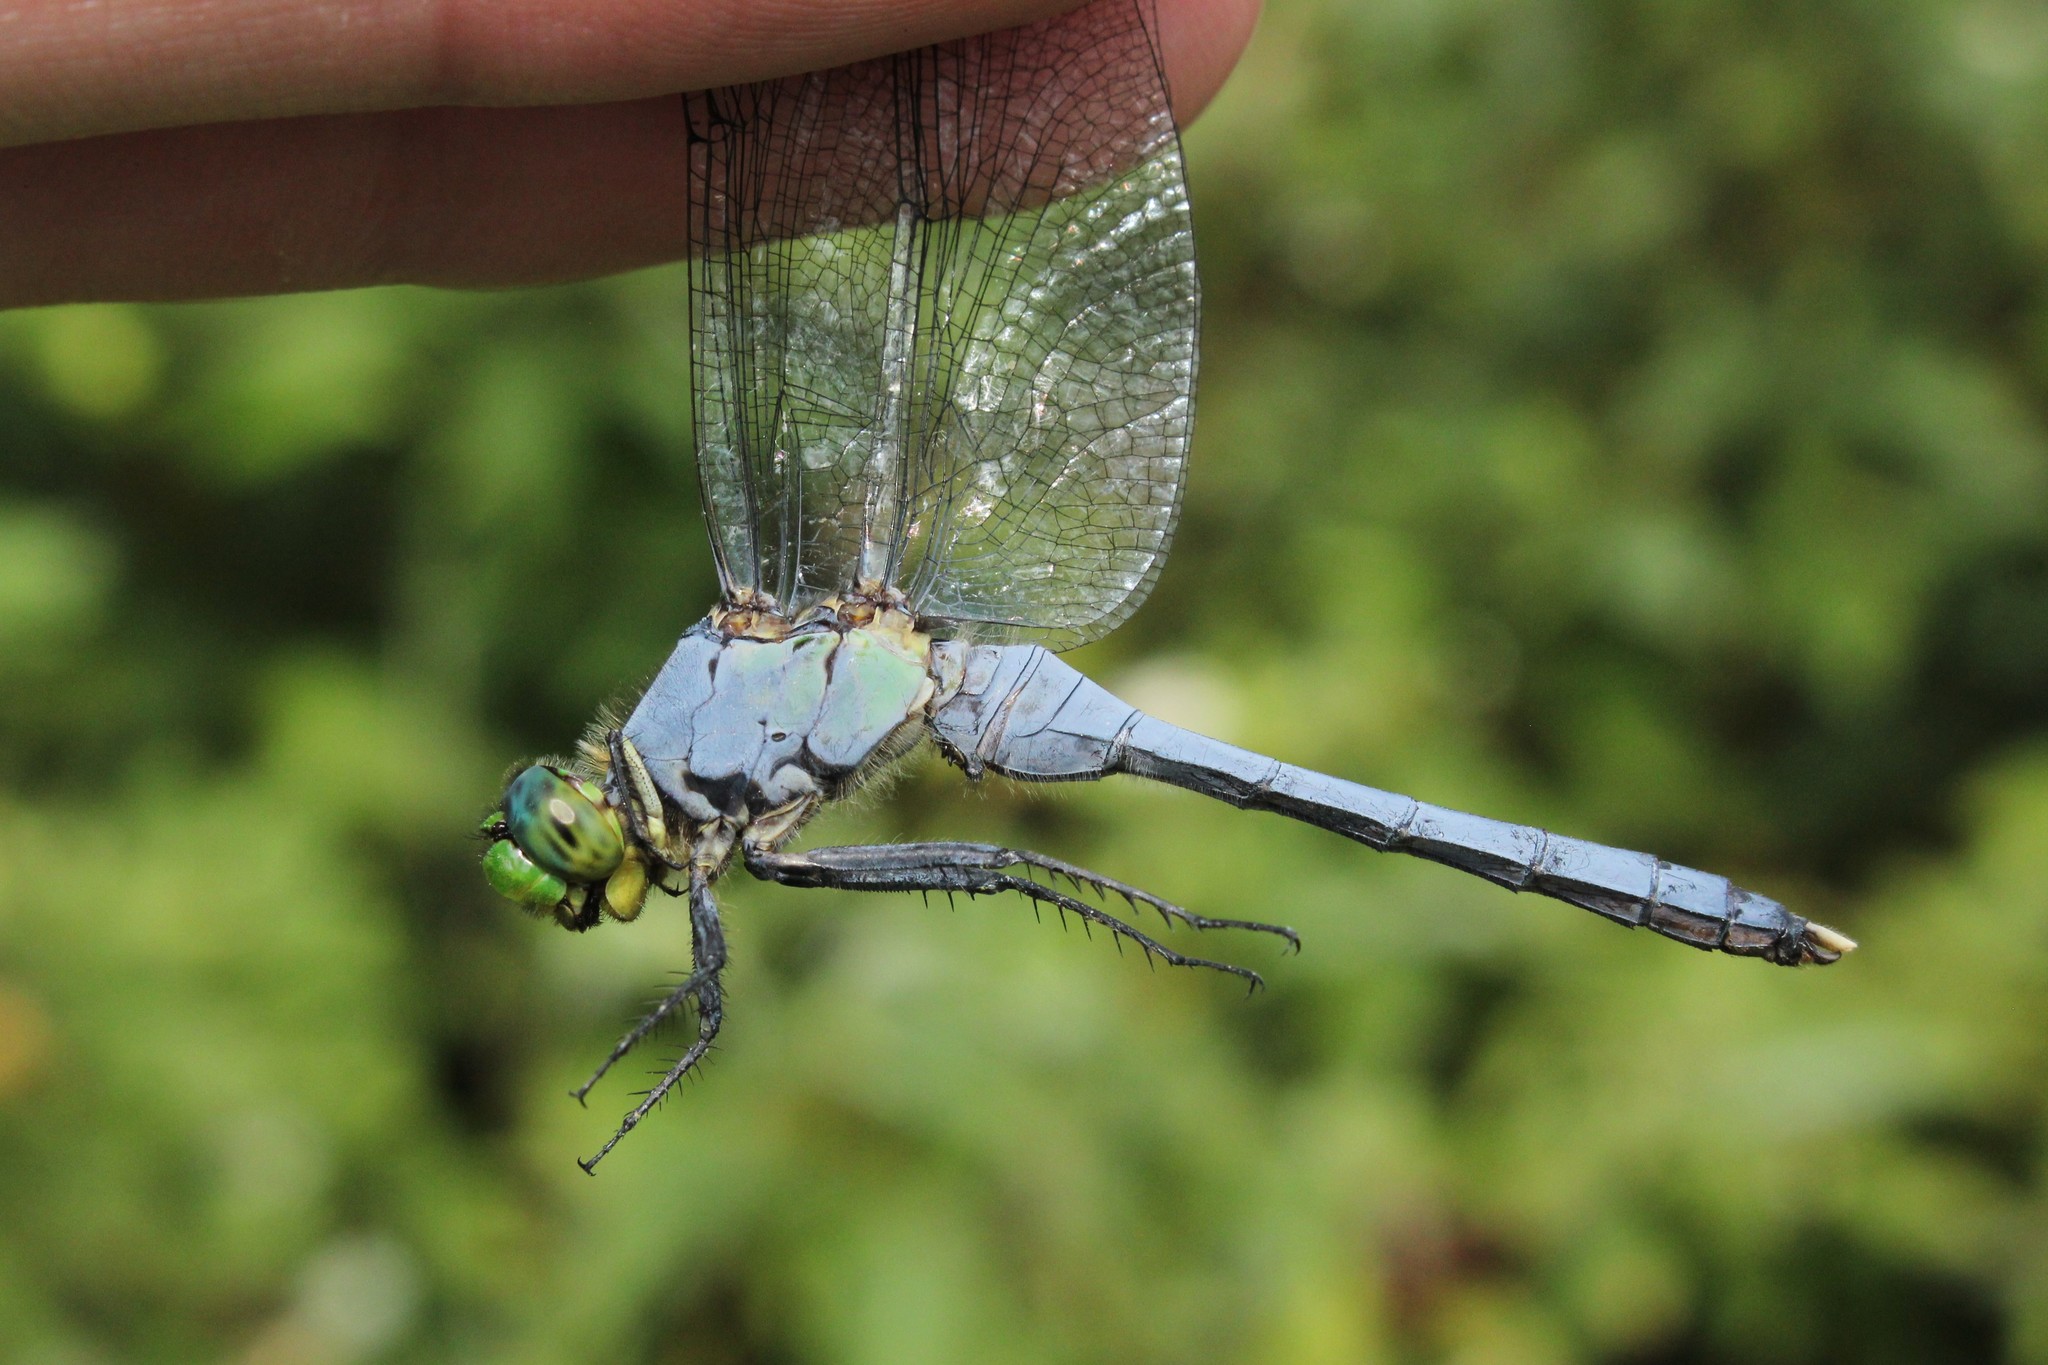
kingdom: Animalia
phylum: Arthropoda
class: Insecta
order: Odonata
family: Libellulidae
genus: Erythemis
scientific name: Erythemis simplicicollis
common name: Eastern pondhawk
